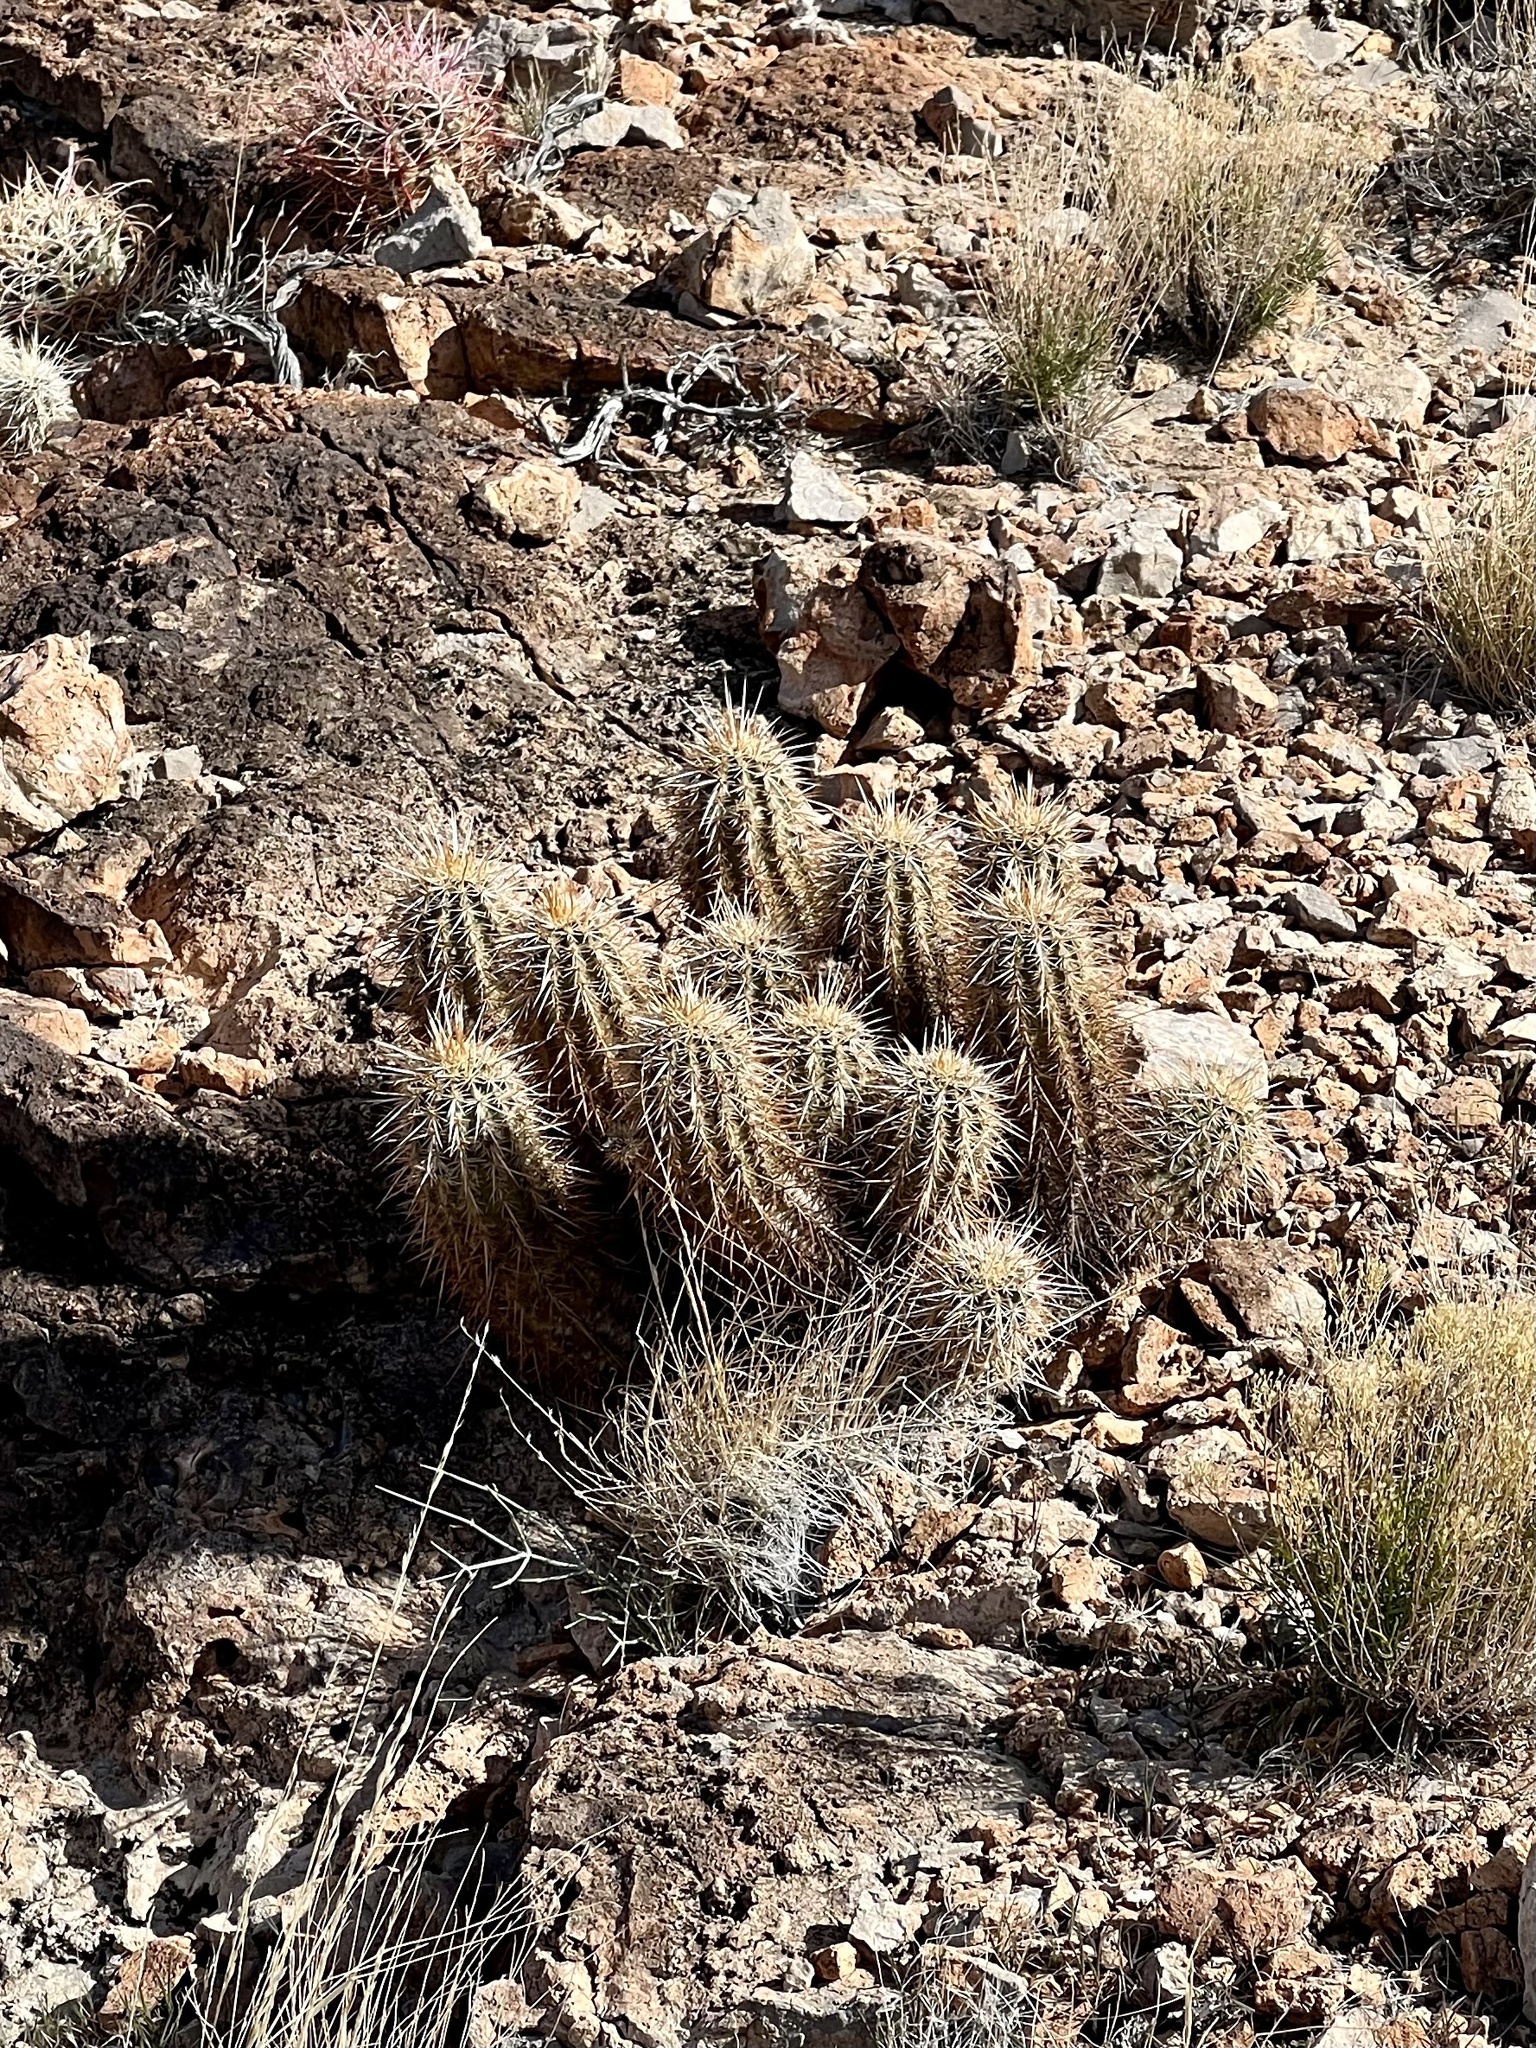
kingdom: Plantae
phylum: Tracheophyta
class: Magnoliopsida
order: Caryophyllales
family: Cactaceae
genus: Echinocereus
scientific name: Echinocereus engelmannii
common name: Engelmann's hedgehog cactus
